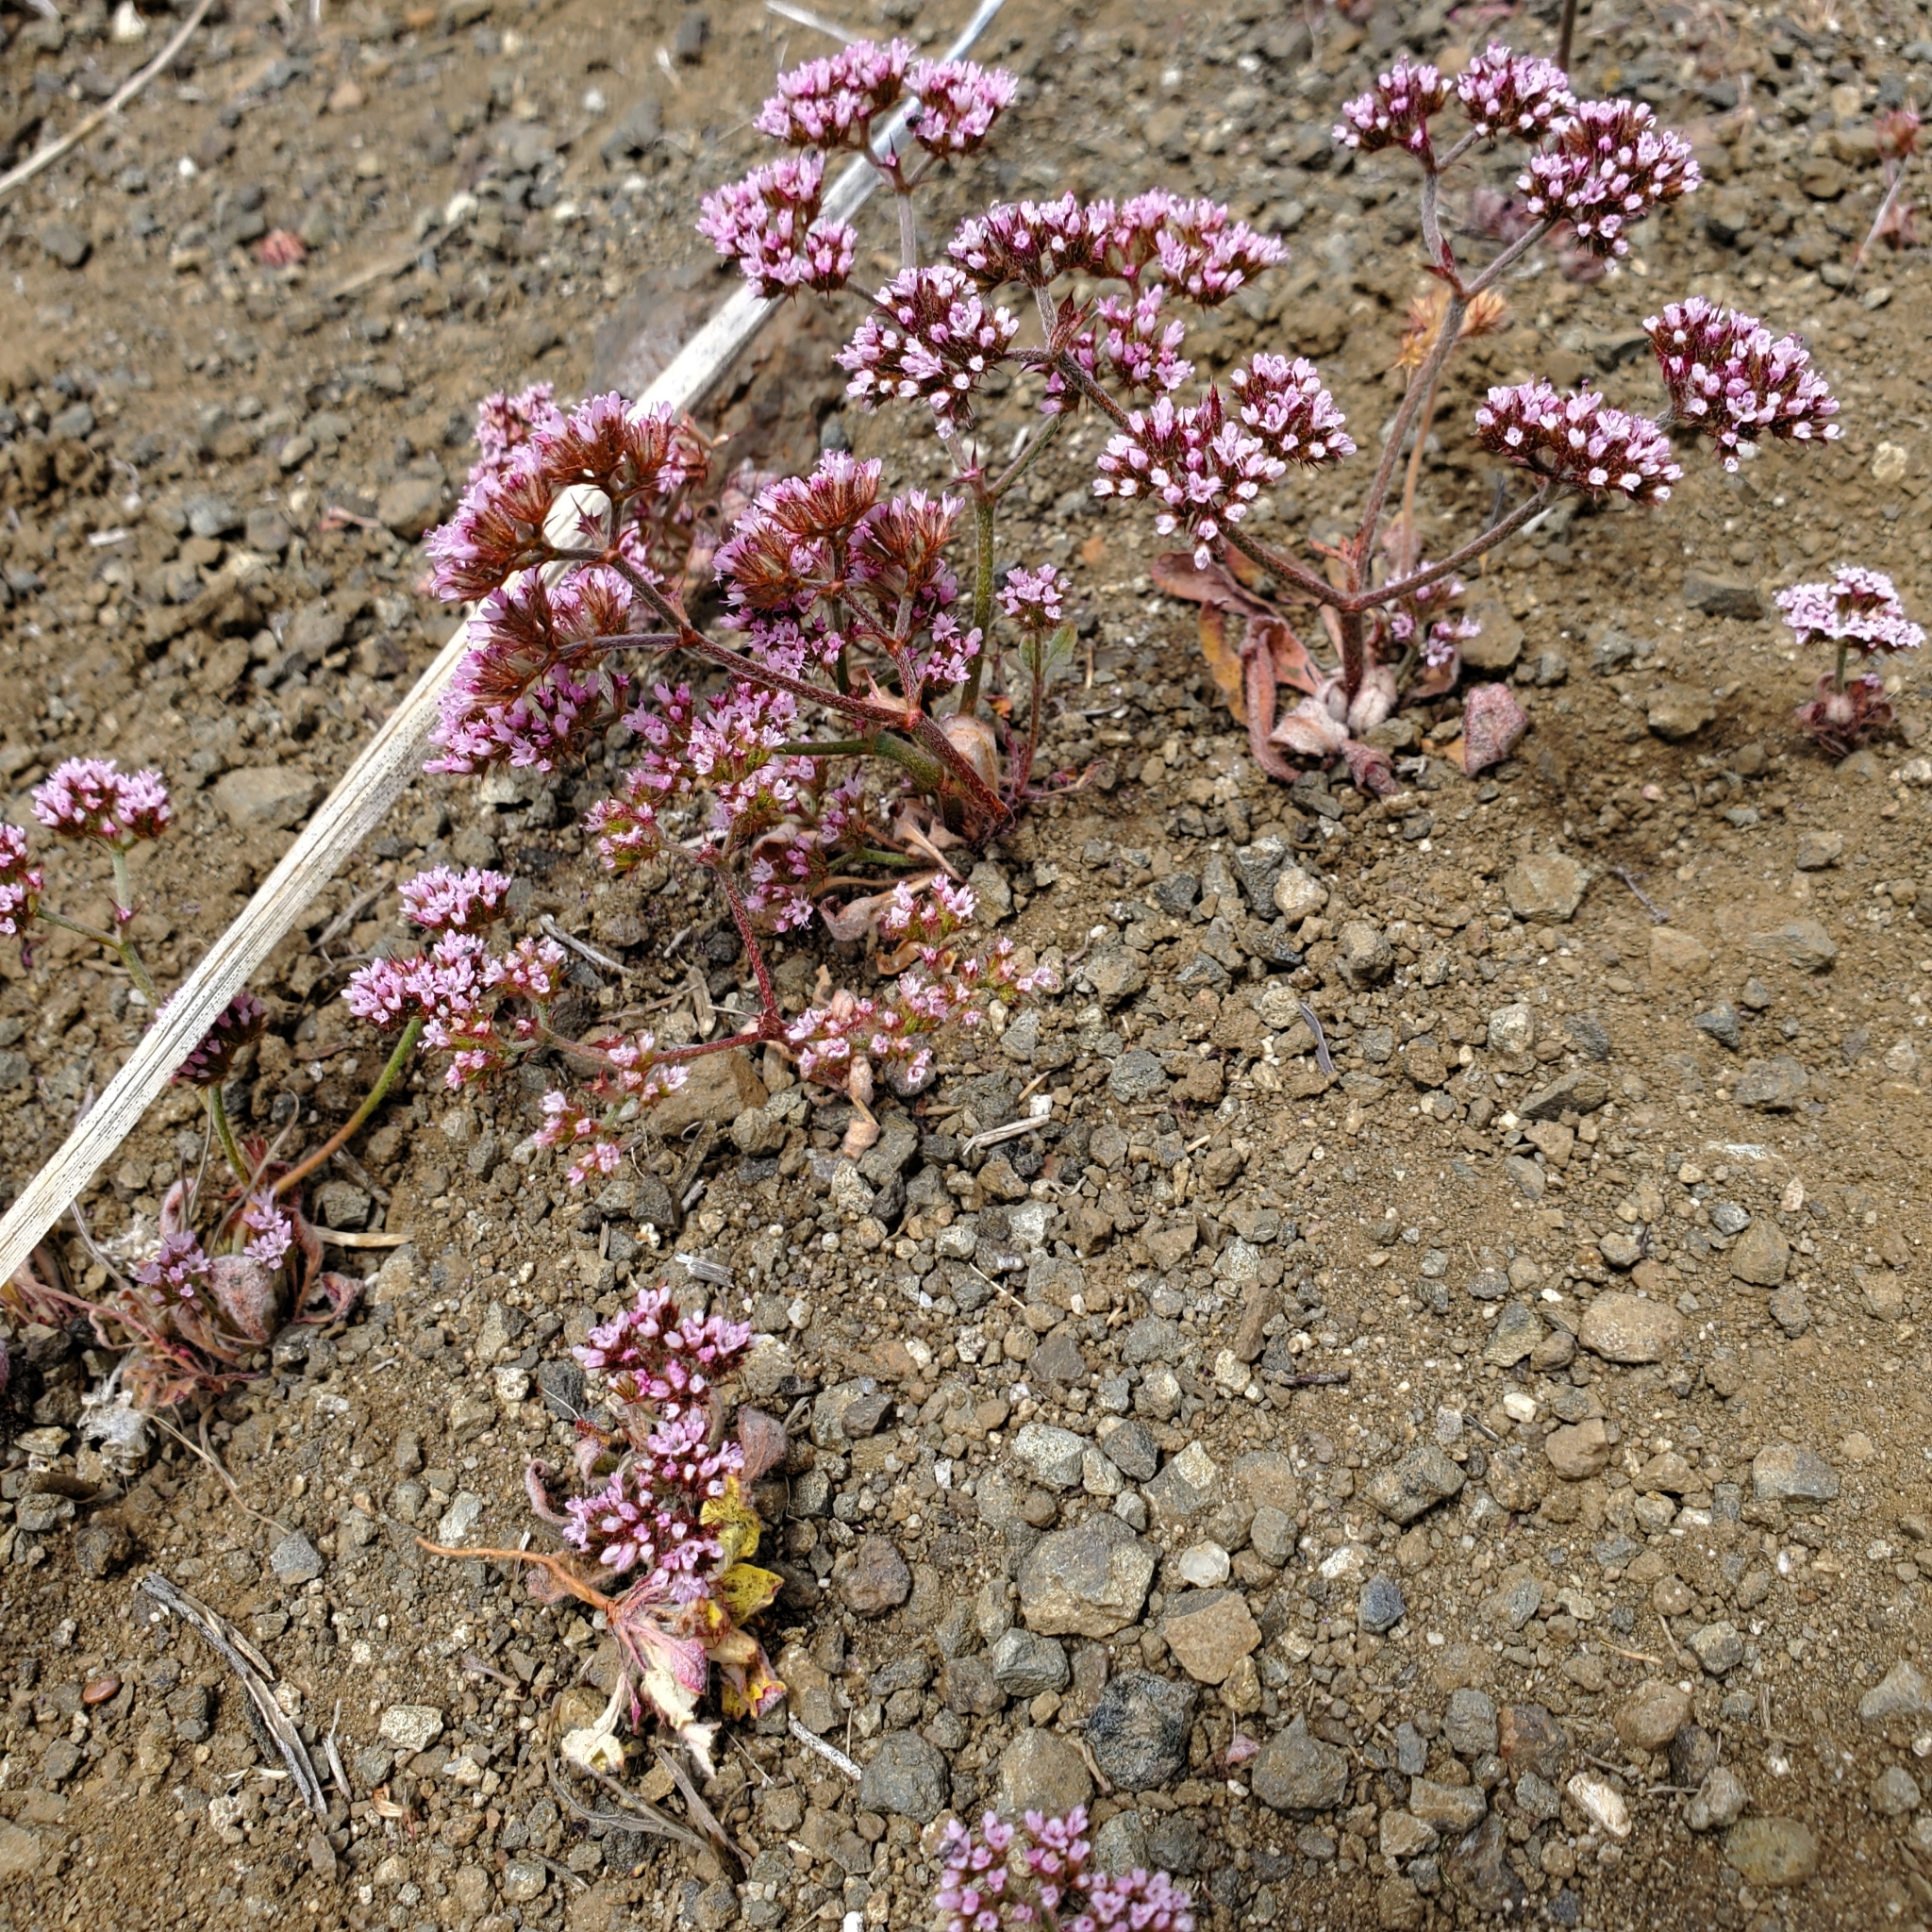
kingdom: Plantae
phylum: Tracheophyta
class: Magnoliopsida
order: Caryophyllales
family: Polygonaceae
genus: Chorizanthe
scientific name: Chorizanthe staticoides
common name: Turkish rugging
